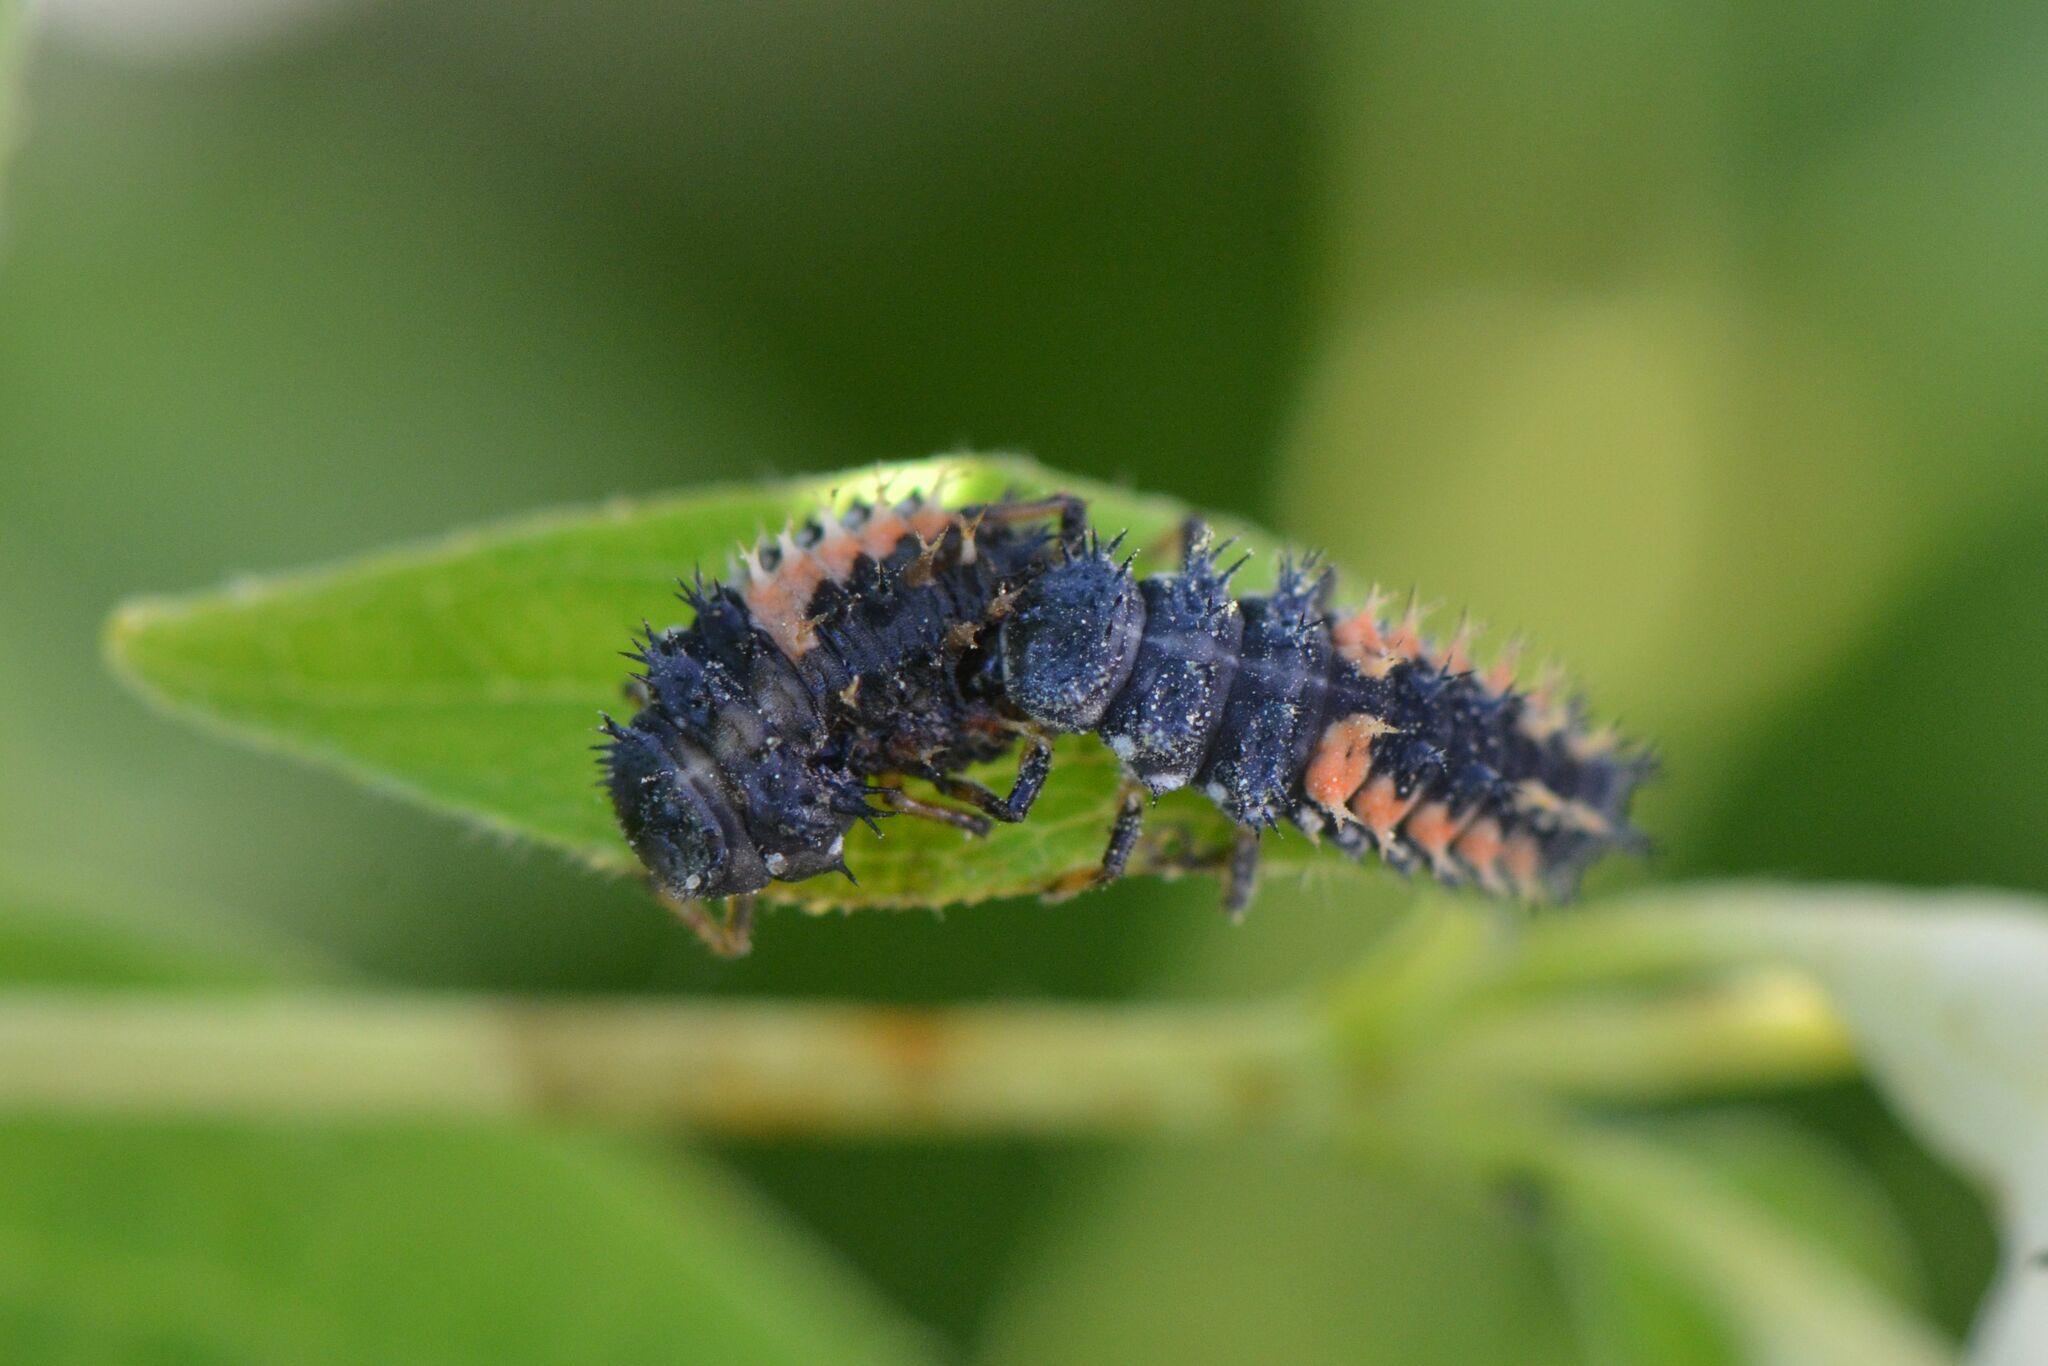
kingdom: Animalia
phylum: Arthropoda
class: Insecta
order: Coleoptera
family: Coccinellidae
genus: Harmonia
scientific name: Harmonia axyridis
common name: Harlequin ladybird
